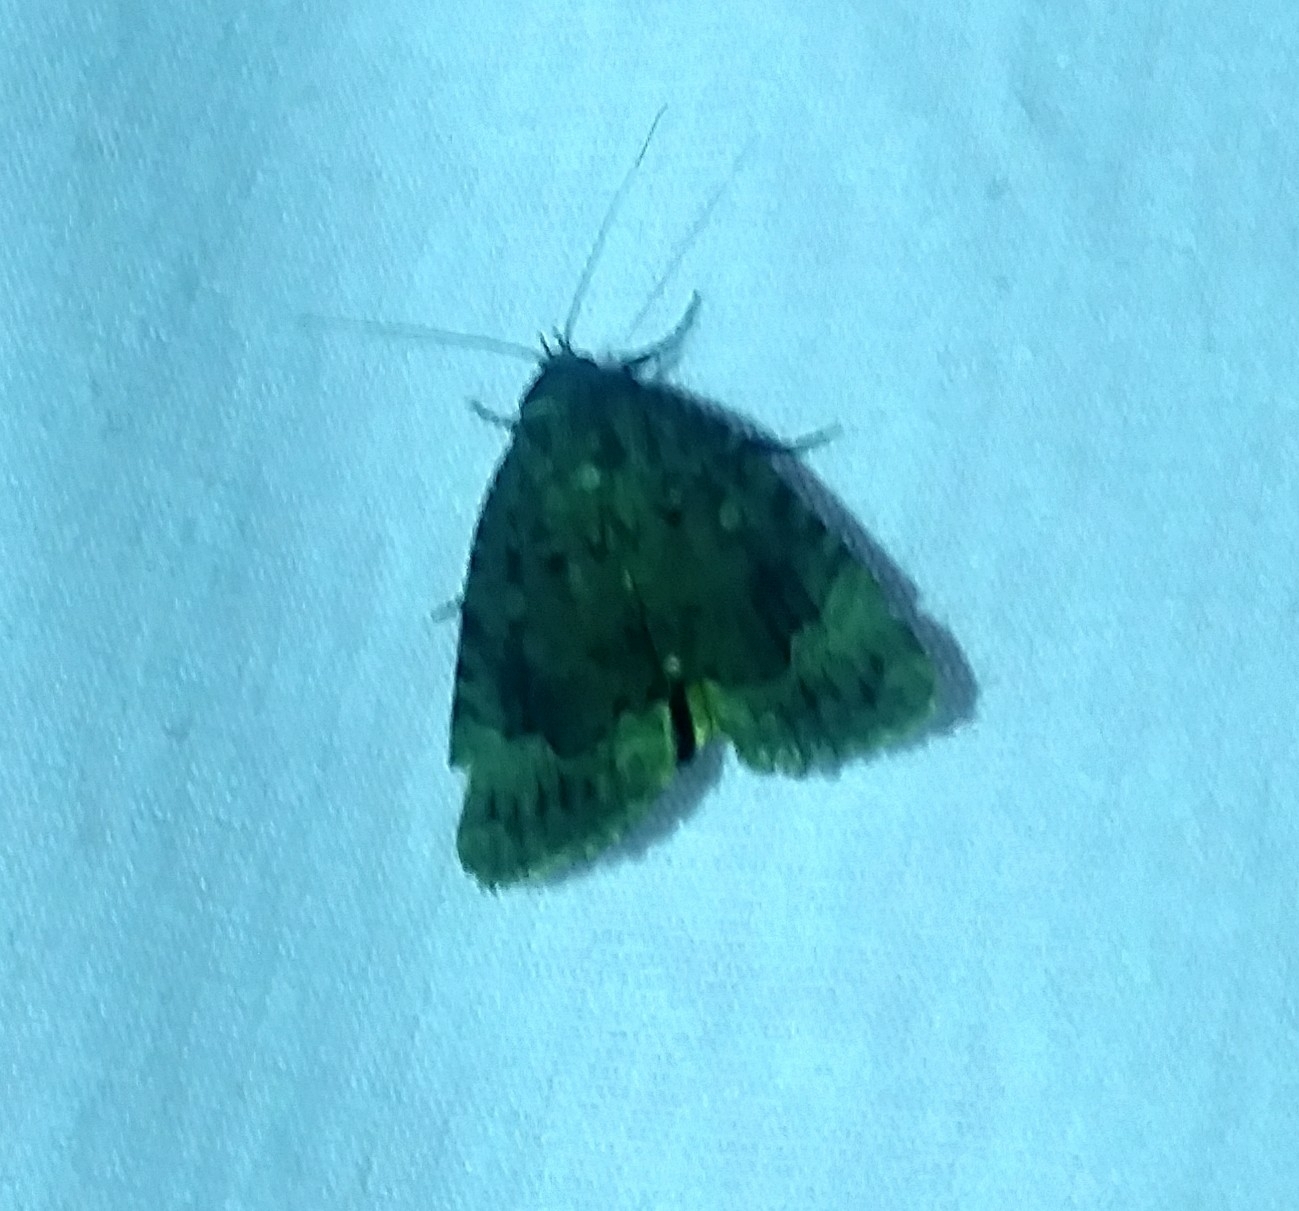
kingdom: Animalia
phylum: Arthropoda
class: Insecta
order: Lepidoptera
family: Noctuidae
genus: Amphipyra
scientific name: Amphipyra pyramidoides
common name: American copper underwing
